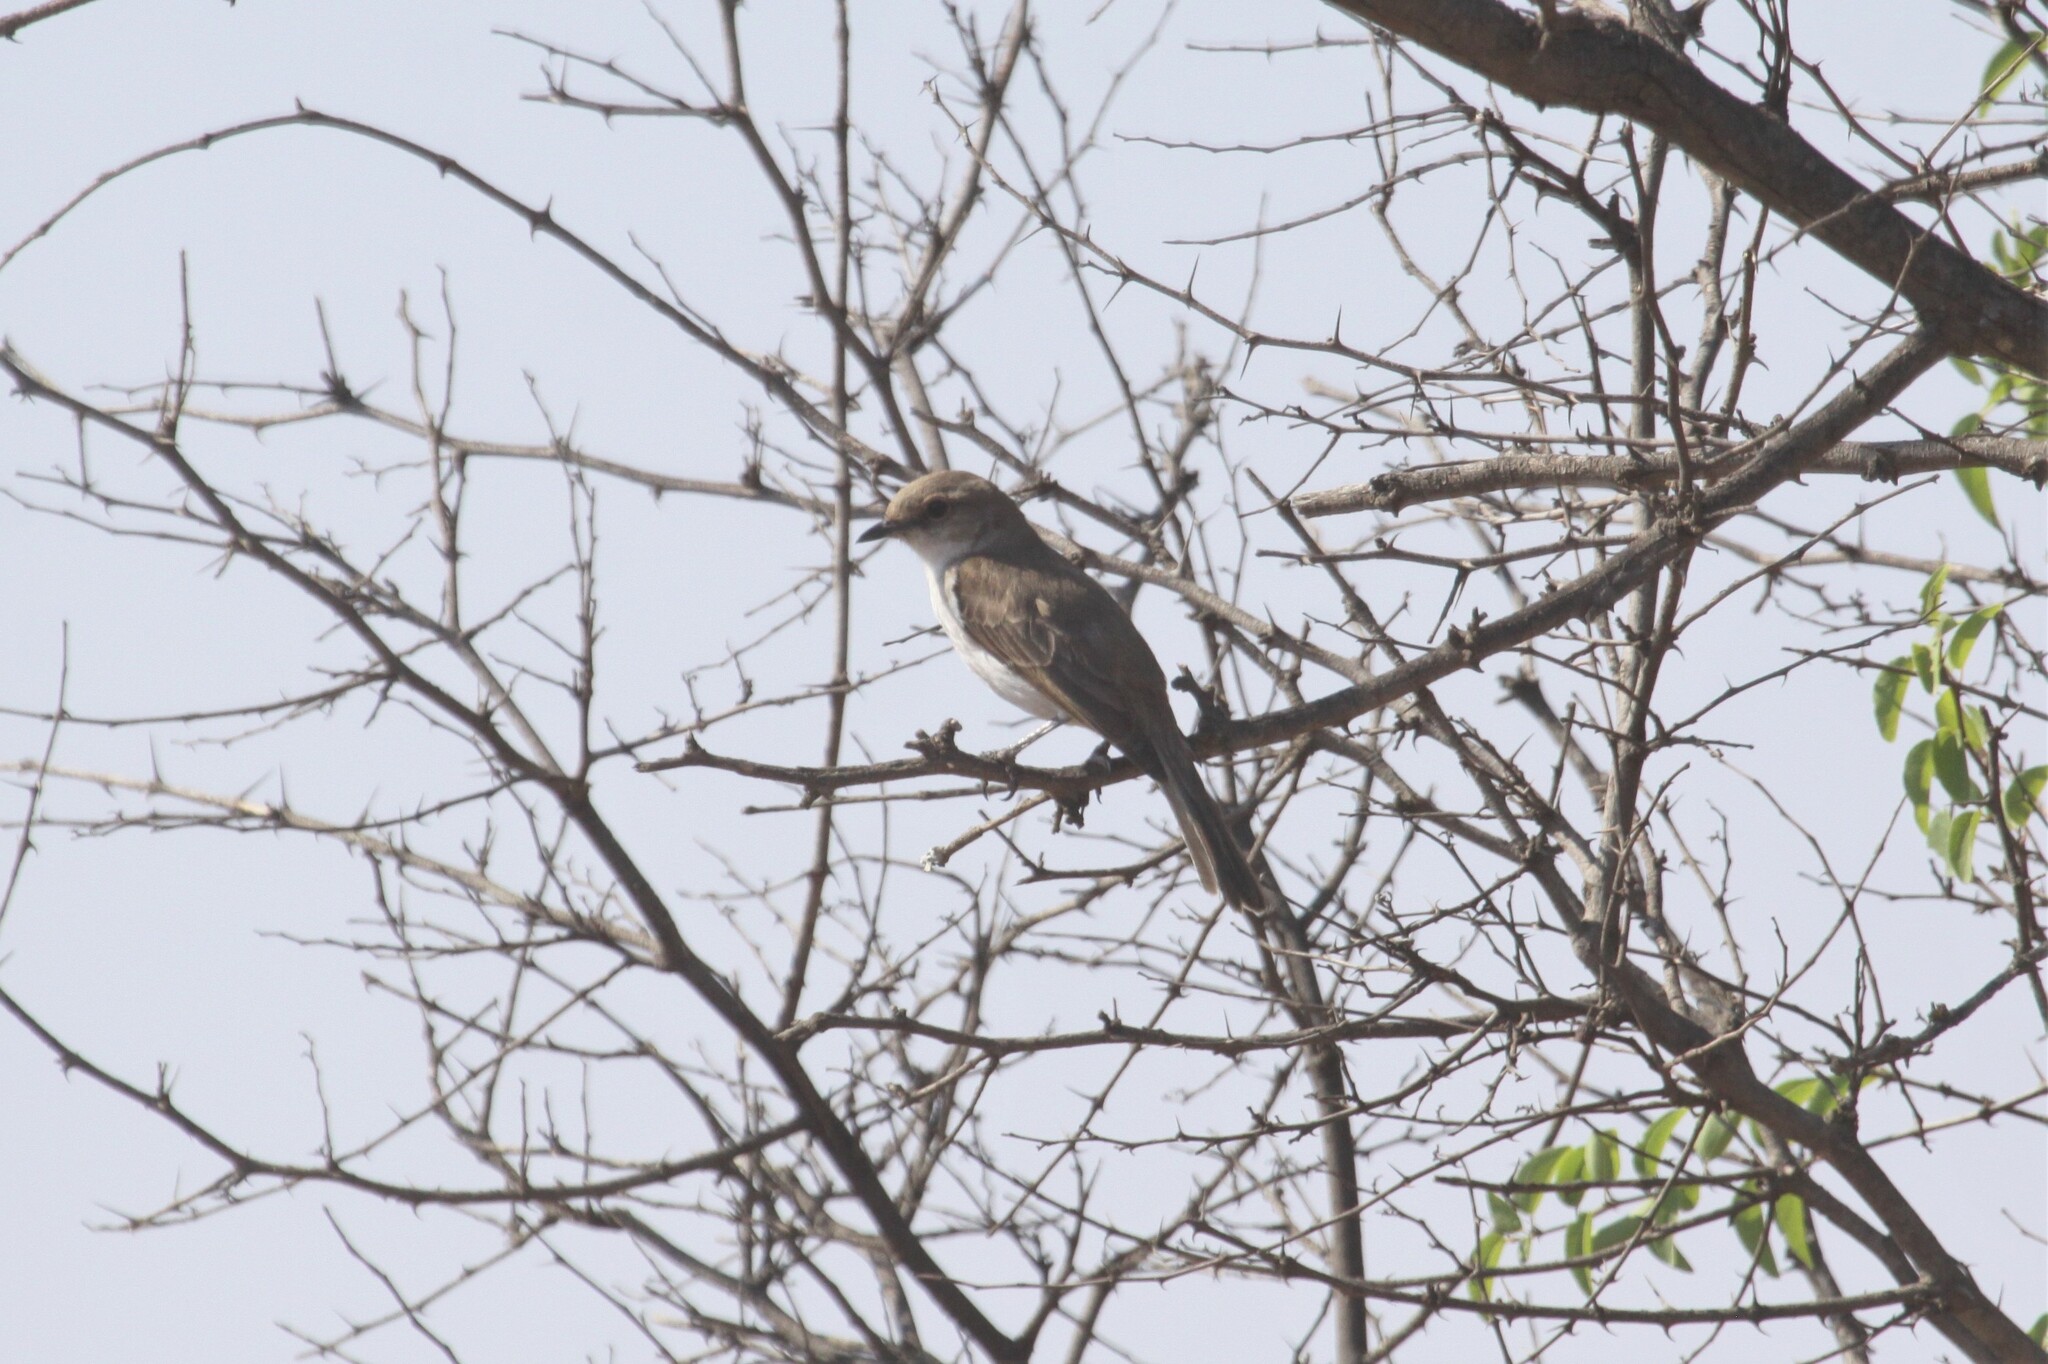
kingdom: Animalia
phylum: Chordata
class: Aves
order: Passeriformes
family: Muscicapidae
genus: Bradornis
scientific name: Bradornis mariquensis
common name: Marico flycatcher
